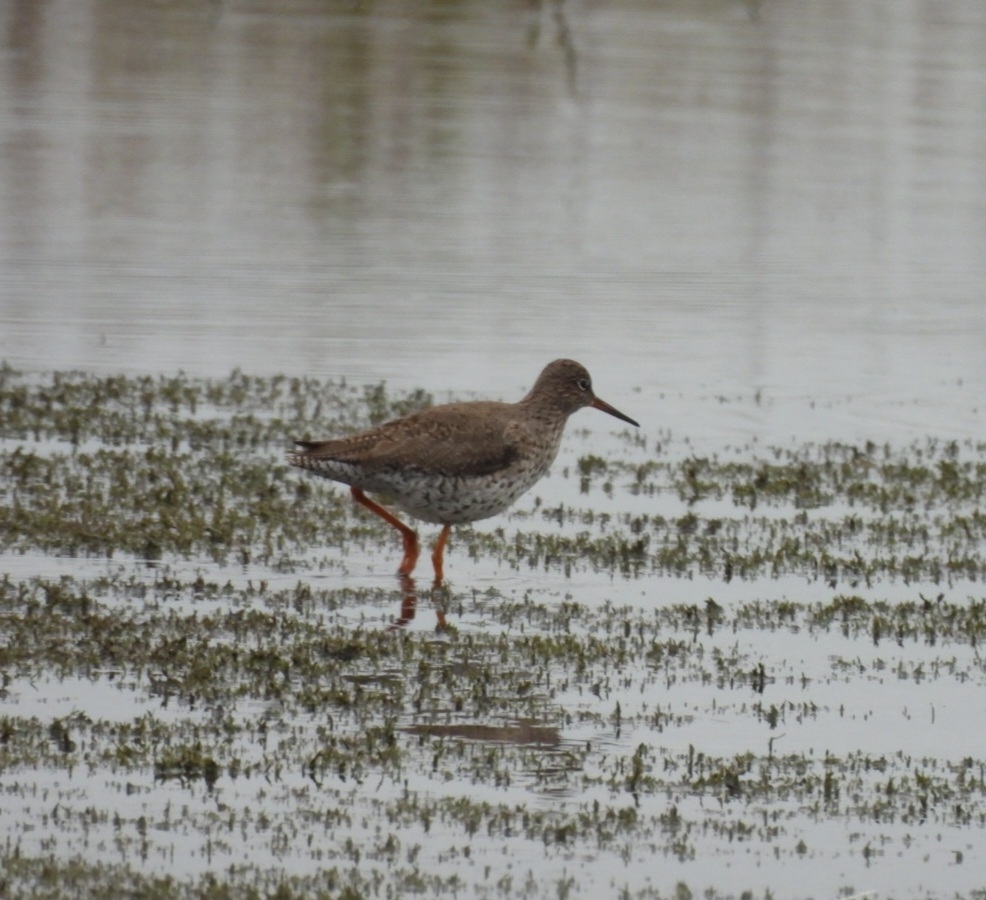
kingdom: Animalia
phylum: Chordata
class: Aves
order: Charadriiformes
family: Scolopacidae
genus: Tringa
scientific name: Tringa totanus
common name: Common redshank
